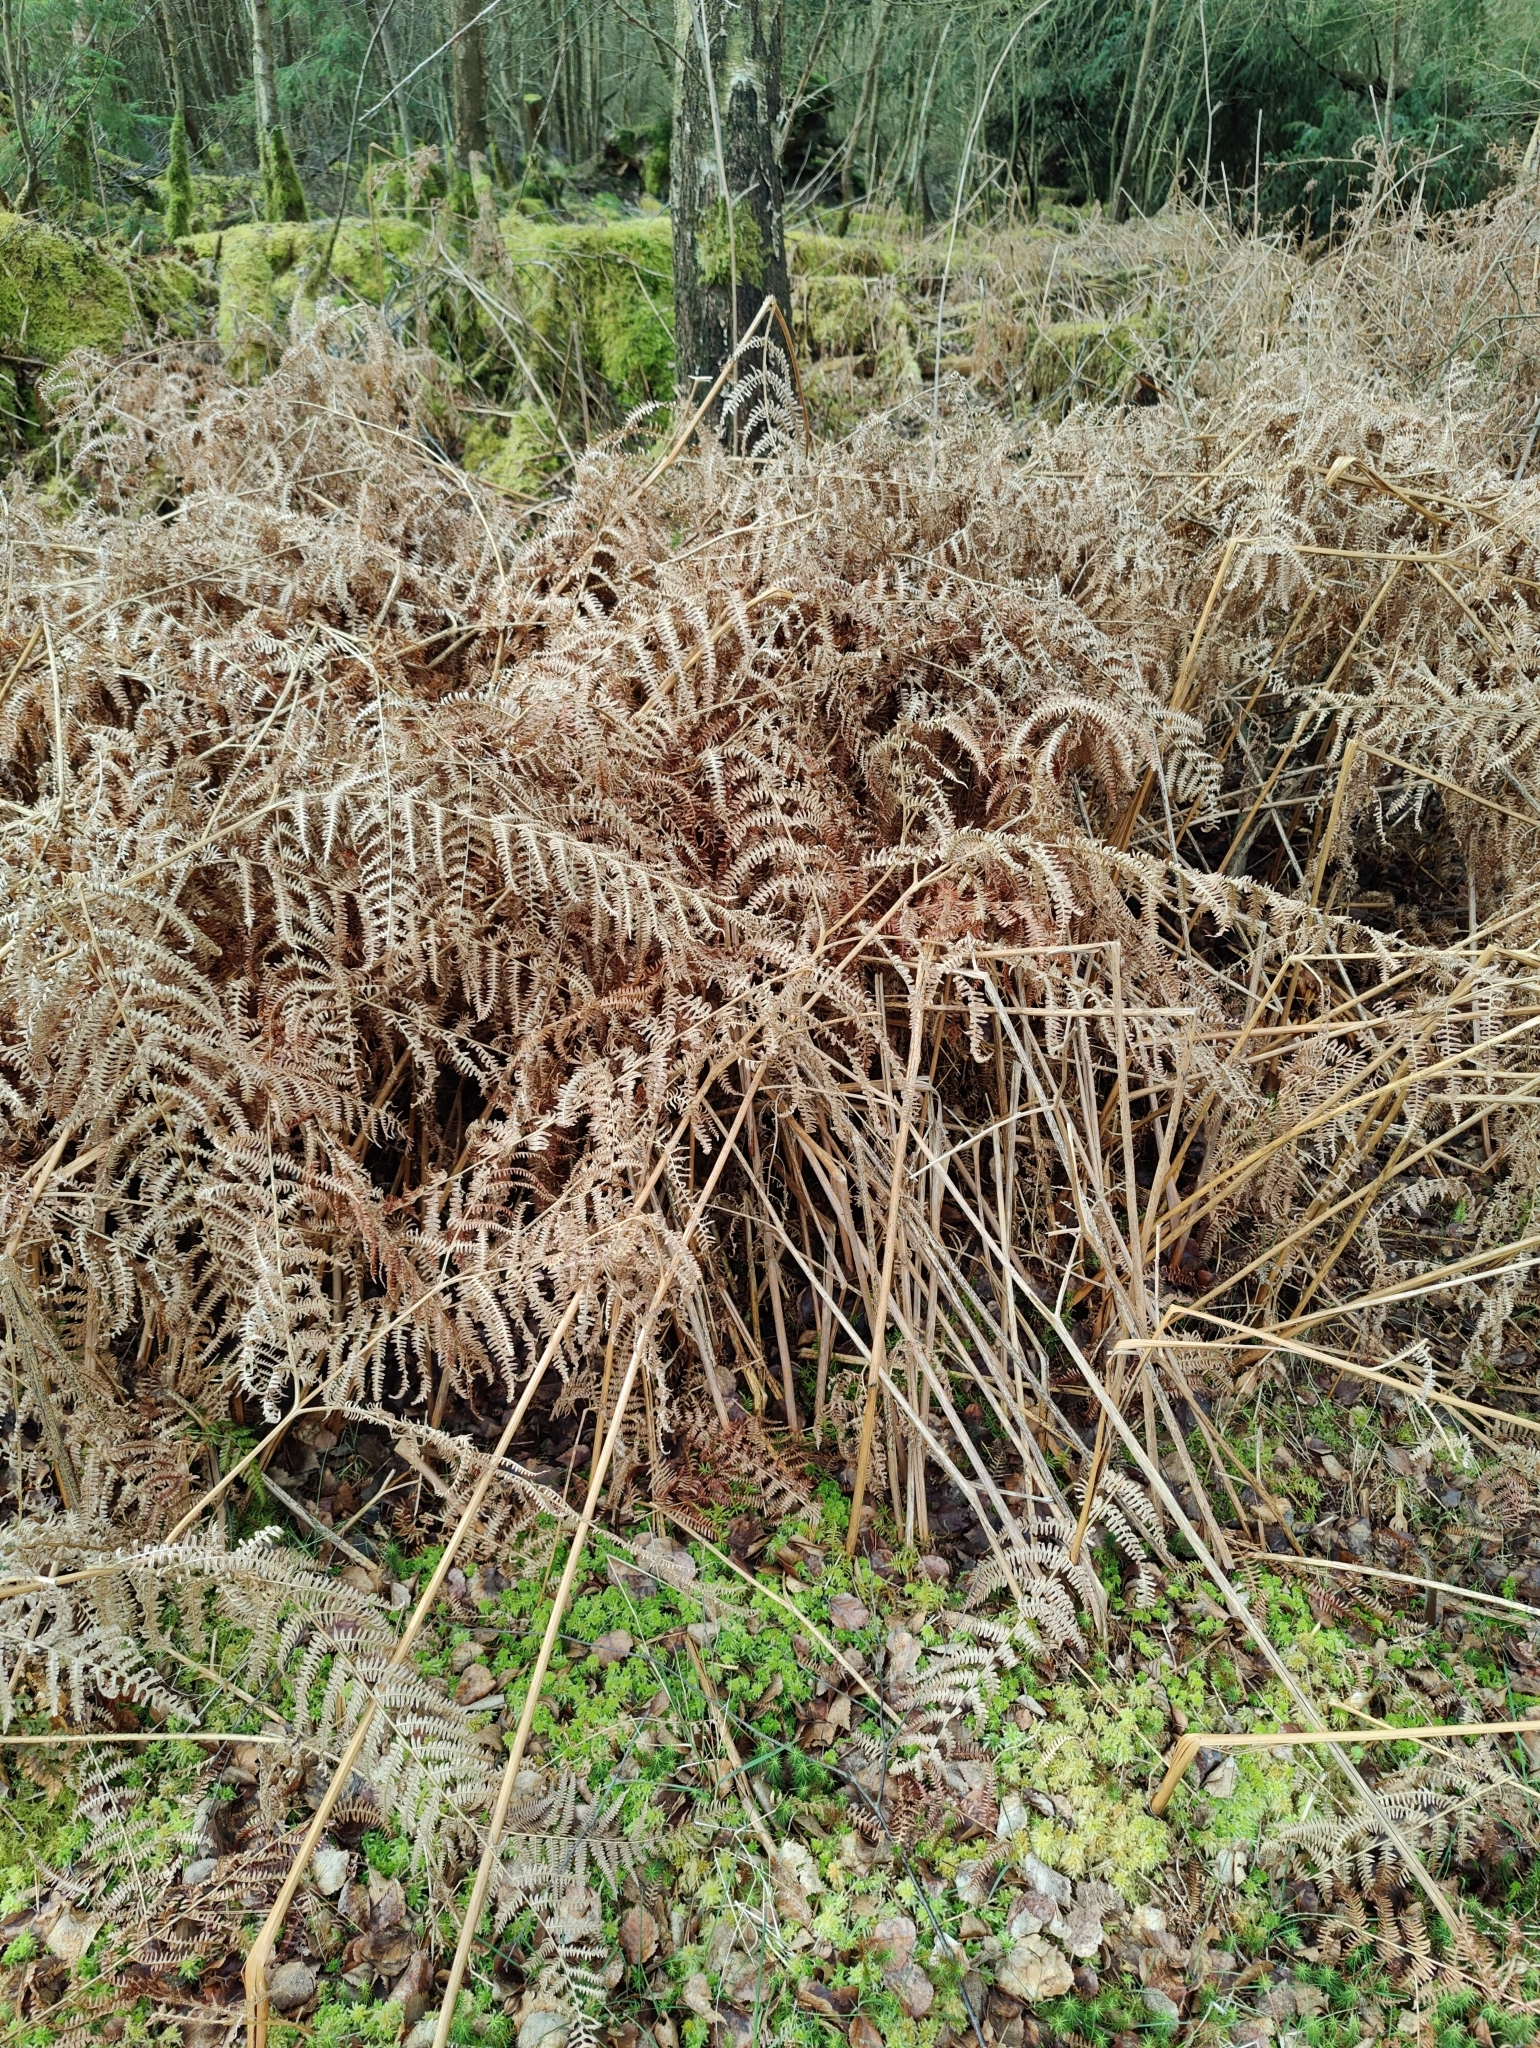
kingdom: Plantae
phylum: Tracheophyta
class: Polypodiopsida
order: Polypodiales
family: Dennstaedtiaceae
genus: Pteridium
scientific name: Pteridium aquilinum
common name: Bracken
